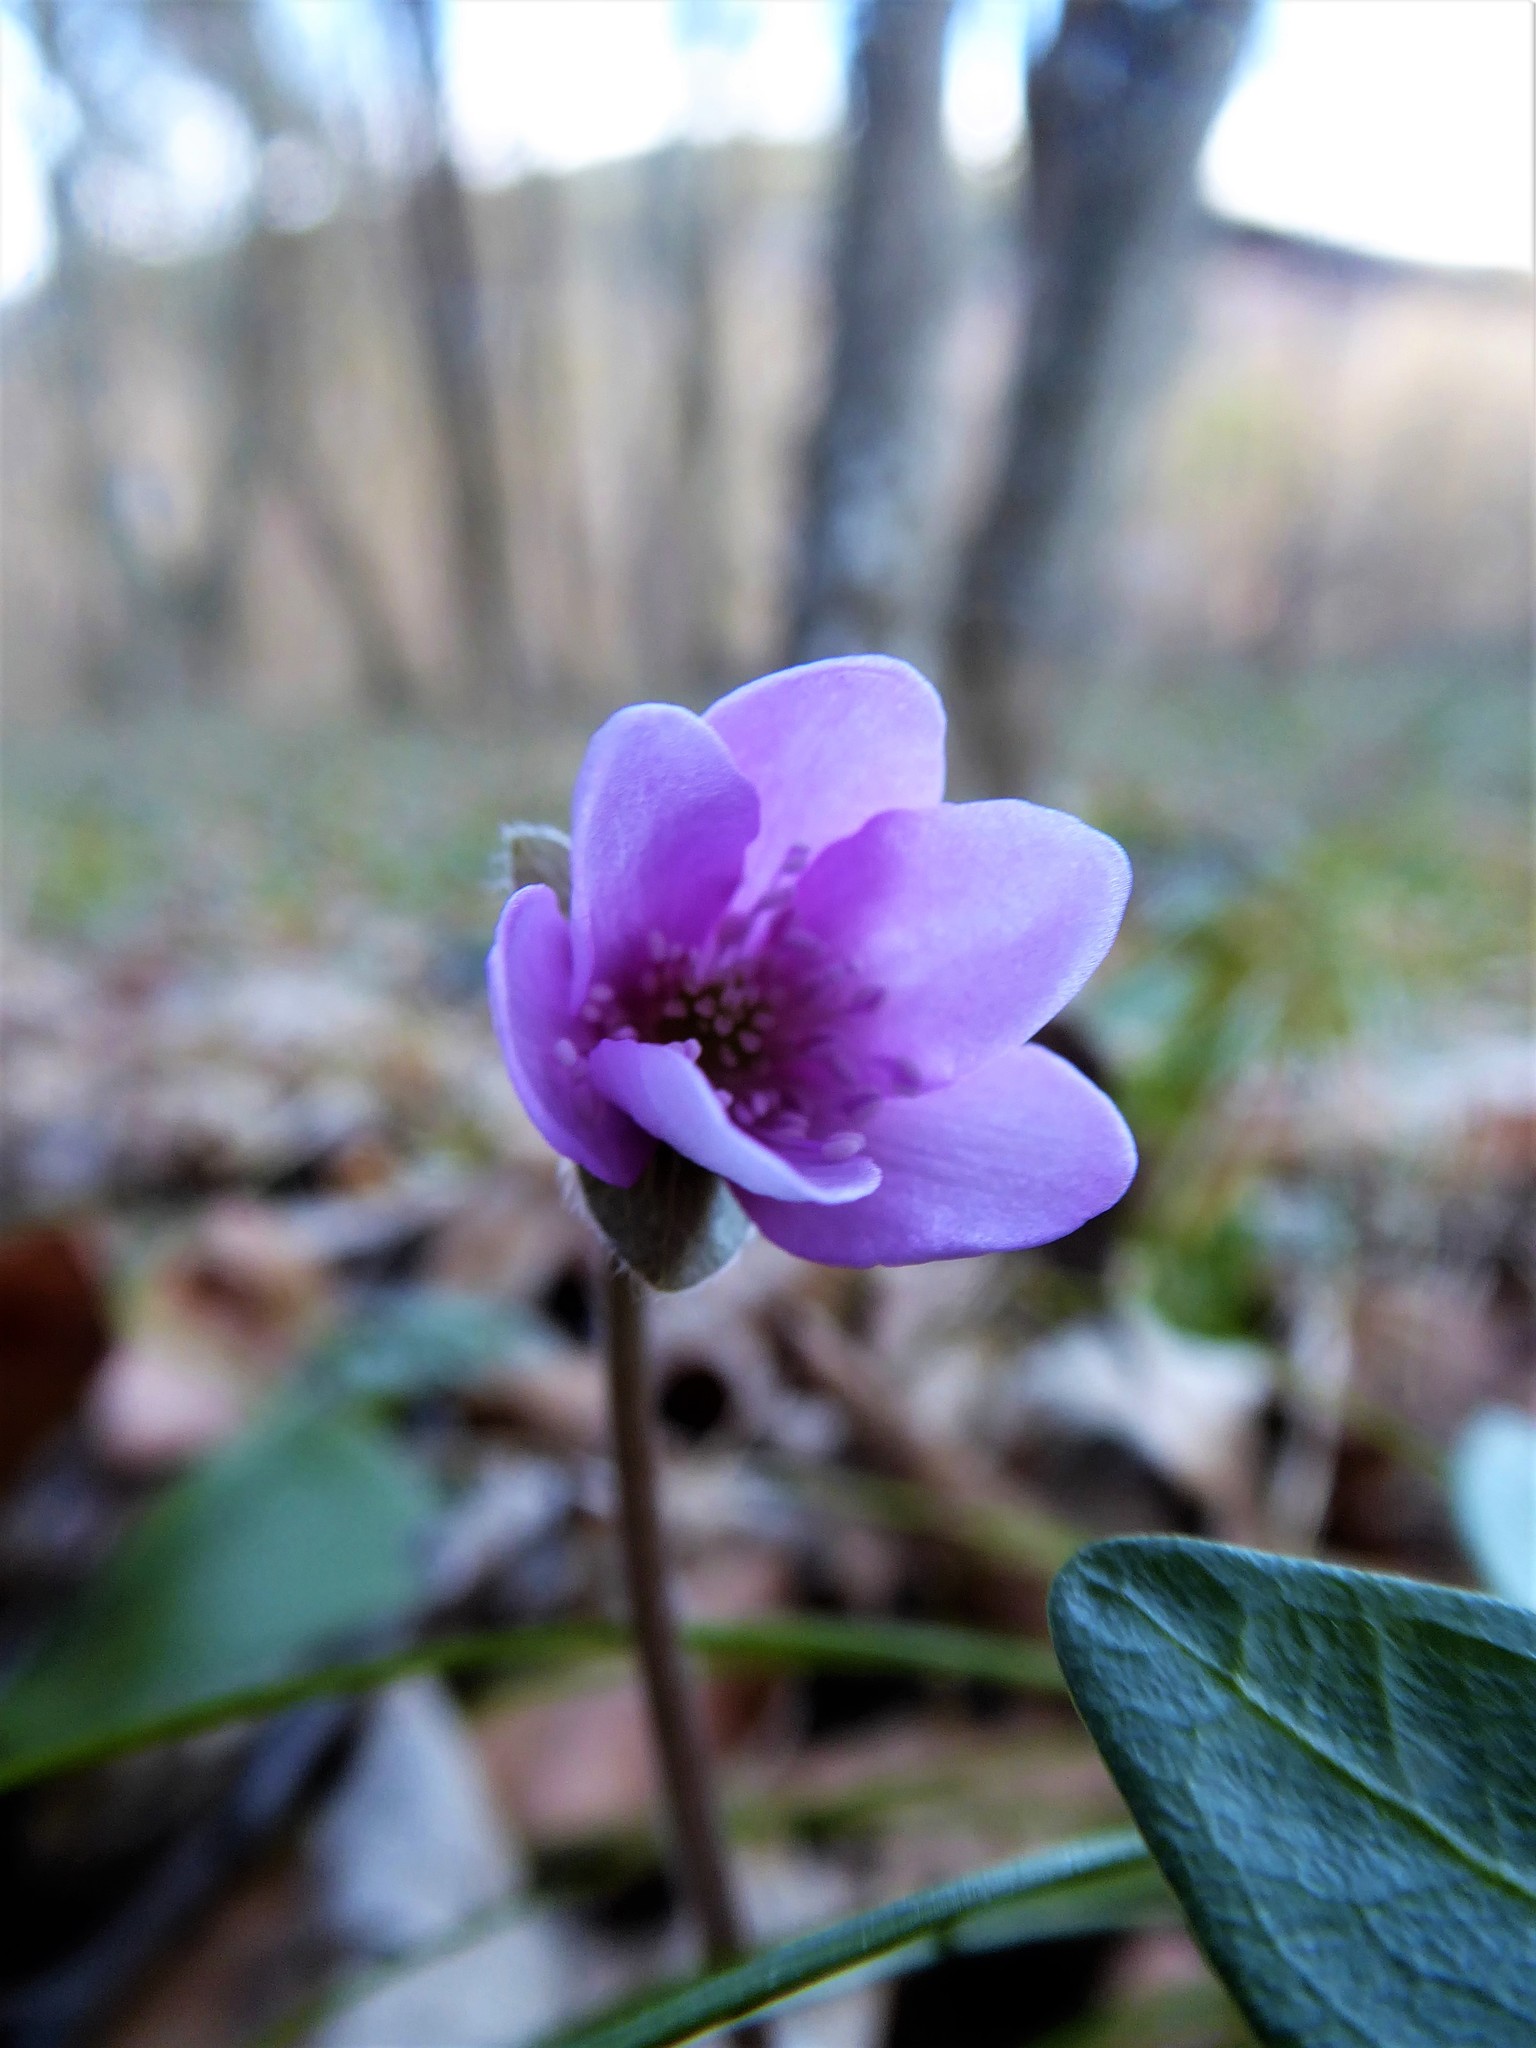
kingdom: Plantae
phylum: Tracheophyta
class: Magnoliopsida
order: Ranunculales
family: Ranunculaceae
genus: Hepatica
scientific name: Hepatica nobilis
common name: Liverleaf
